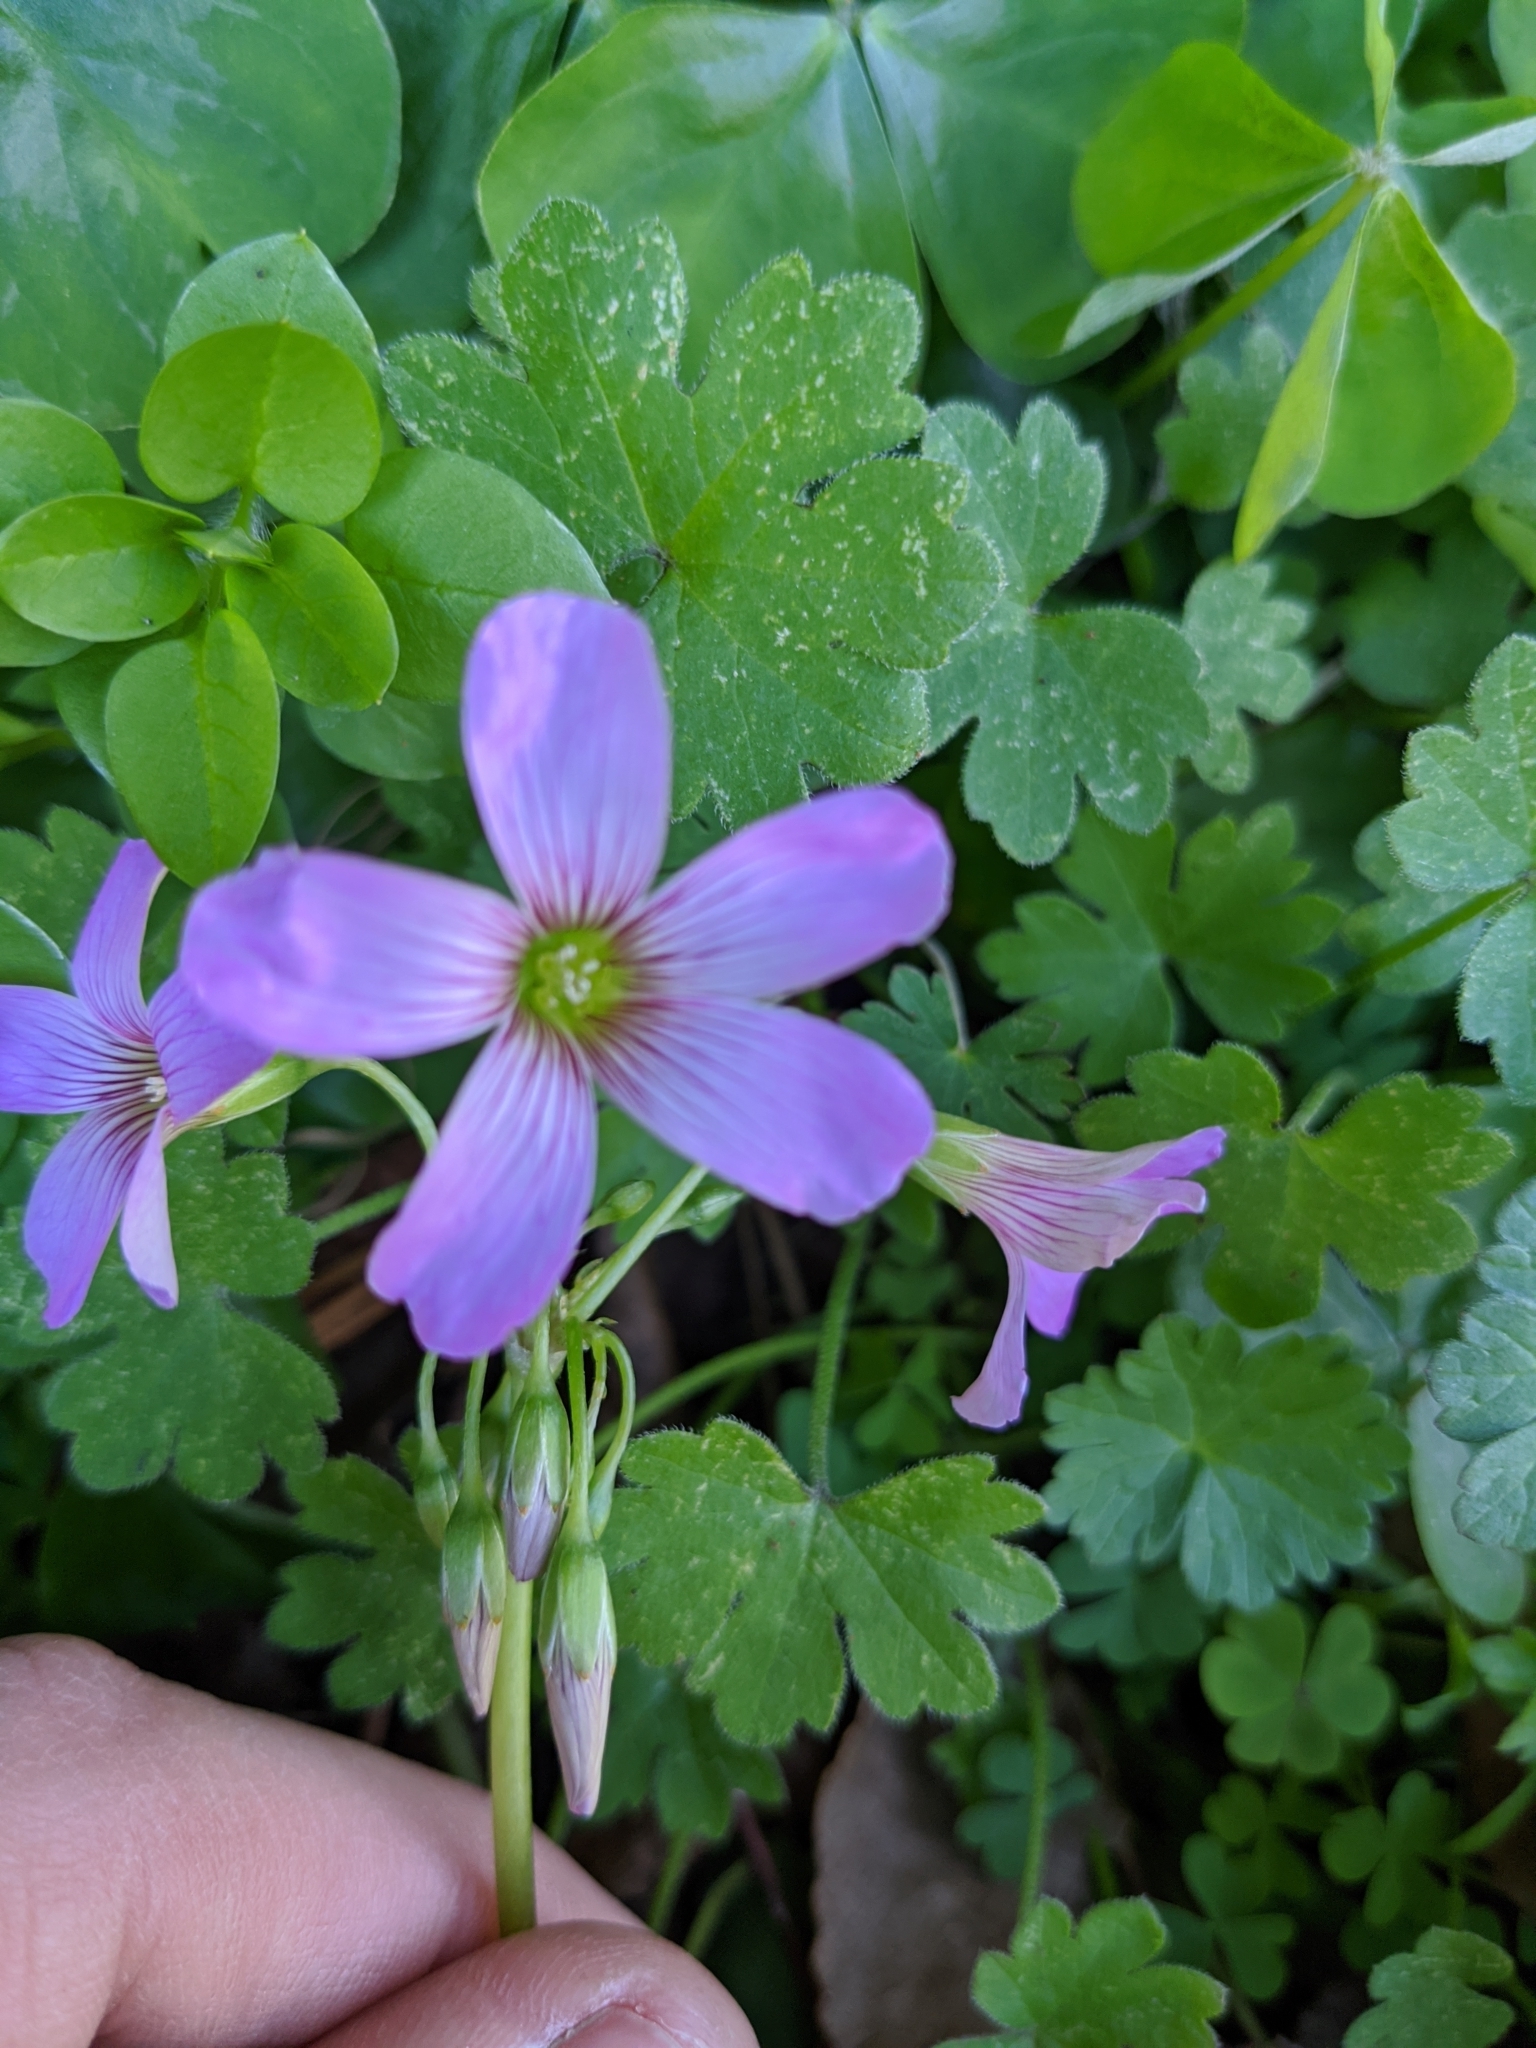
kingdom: Plantae
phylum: Tracheophyta
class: Magnoliopsida
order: Oxalidales
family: Oxalidaceae
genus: Oxalis
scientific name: Oxalis debilis
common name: Large-flowered pink-sorrel
